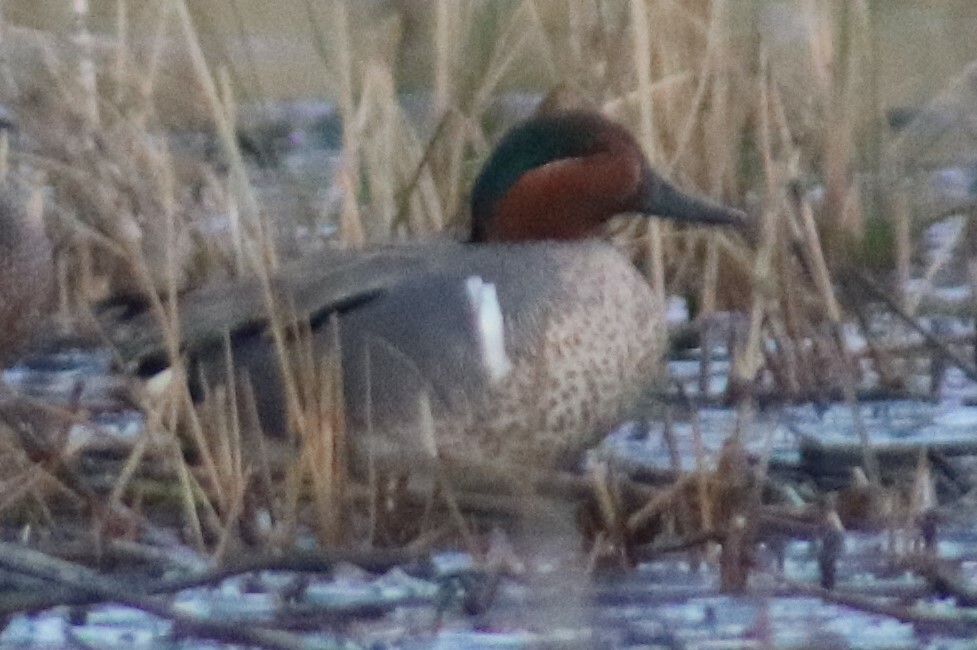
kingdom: Animalia
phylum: Chordata
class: Aves
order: Anseriformes
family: Anatidae
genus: Anas
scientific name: Anas crecca
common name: Eurasian teal
